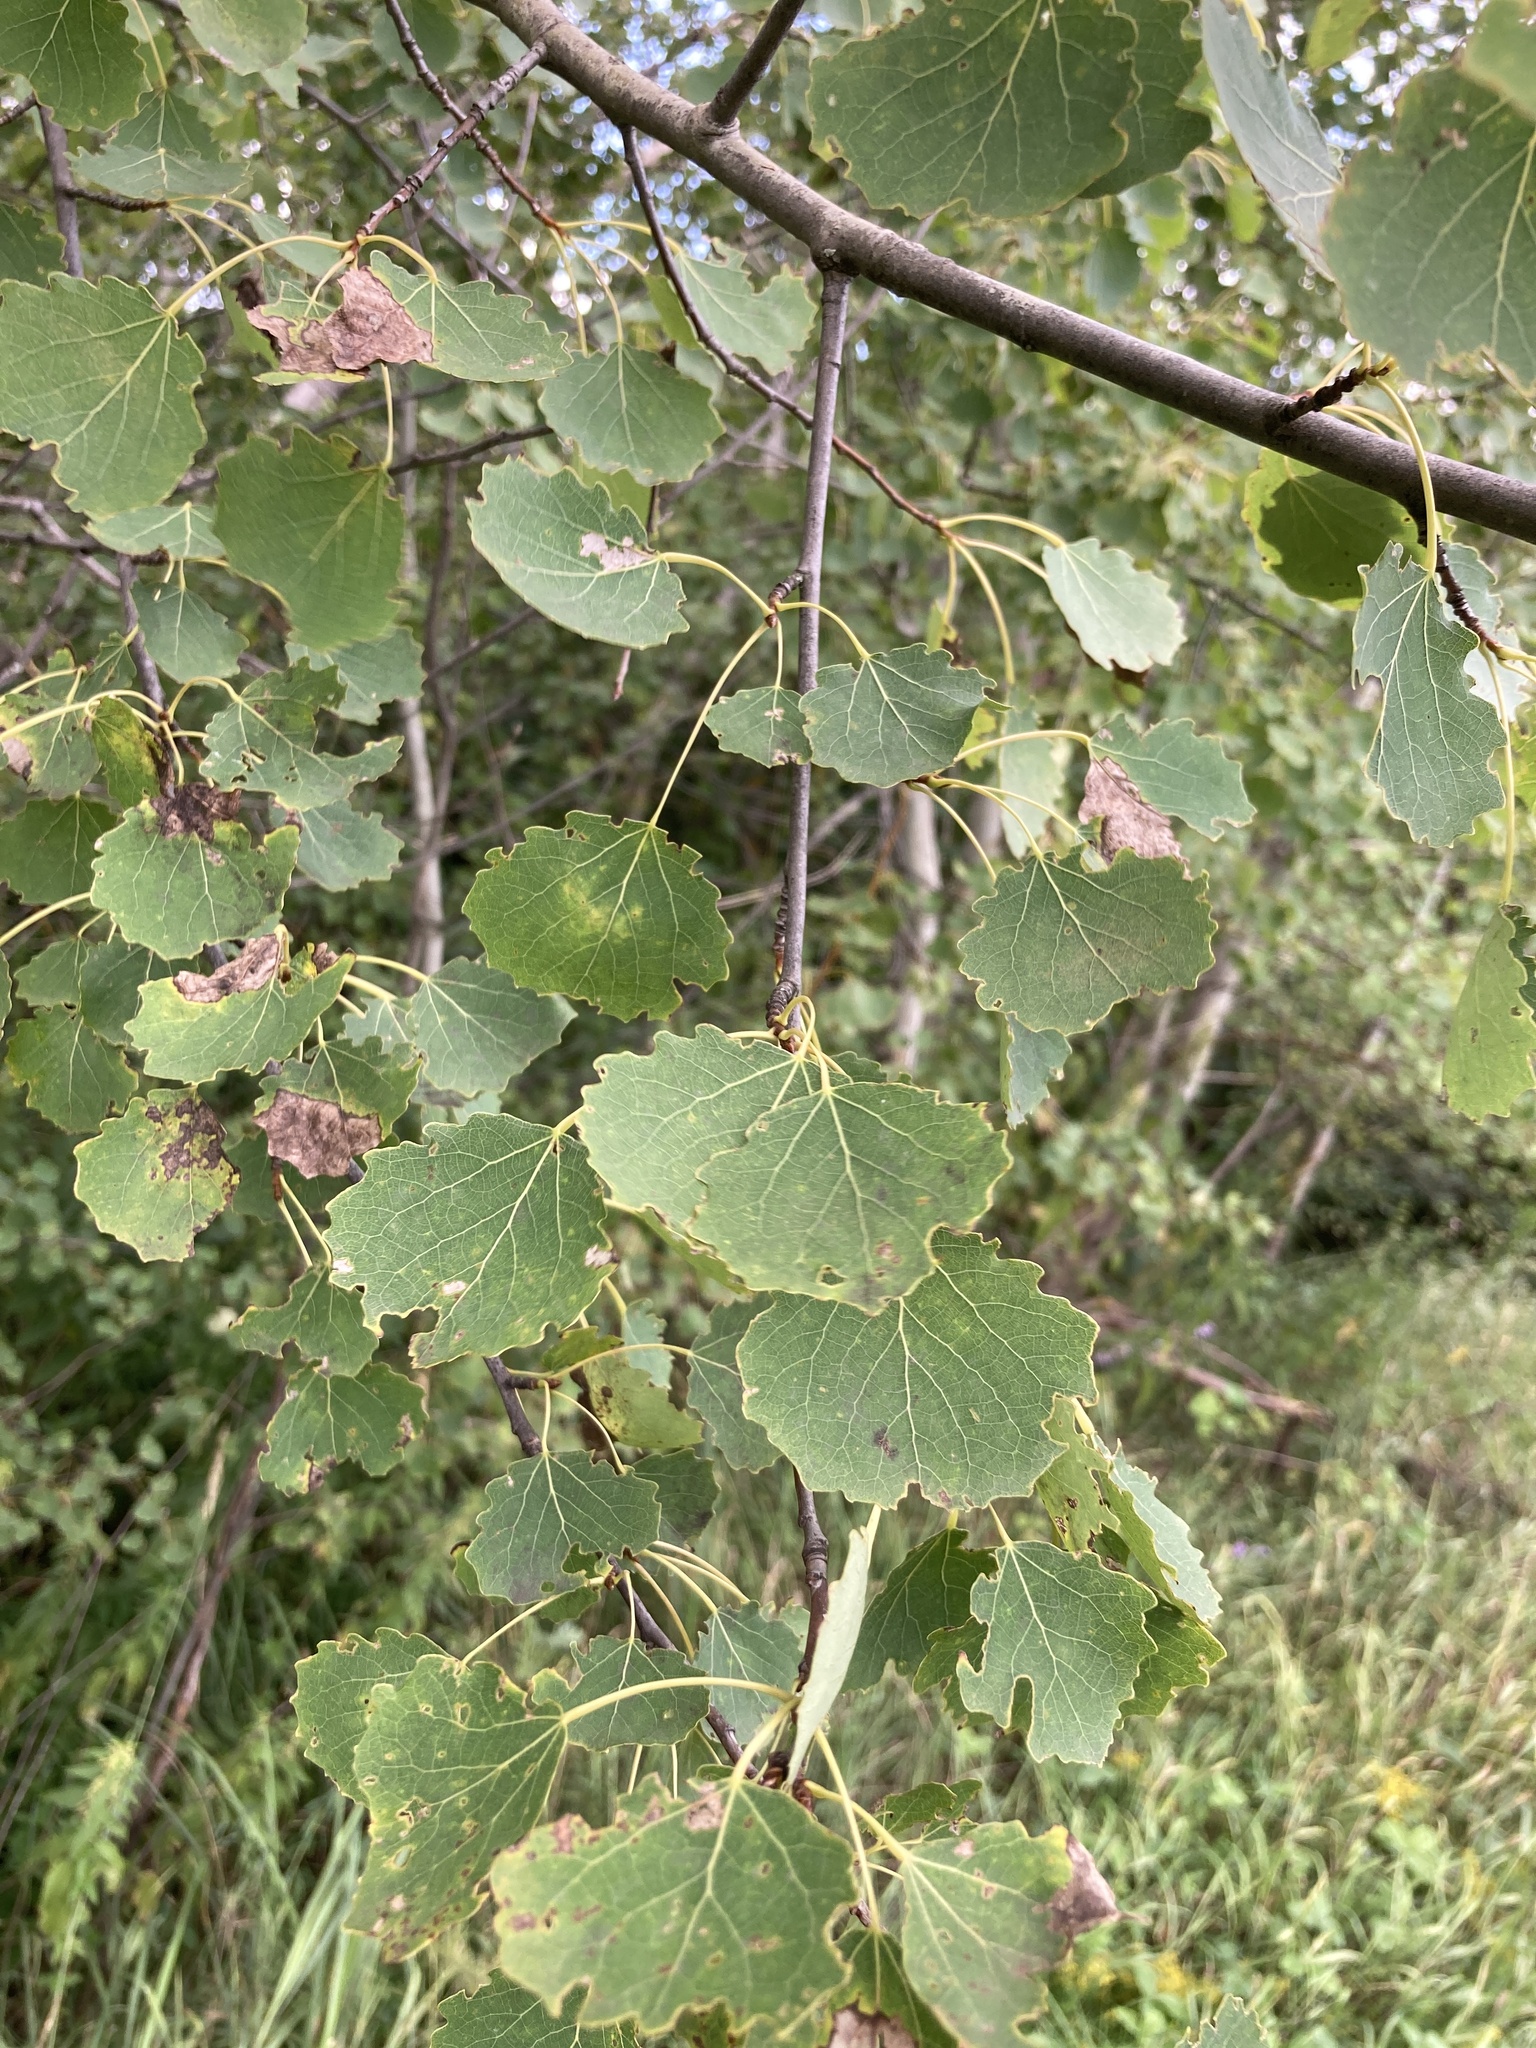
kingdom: Plantae
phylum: Tracheophyta
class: Magnoliopsida
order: Malpighiales
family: Salicaceae
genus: Populus
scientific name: Populus tremula
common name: European aspen
